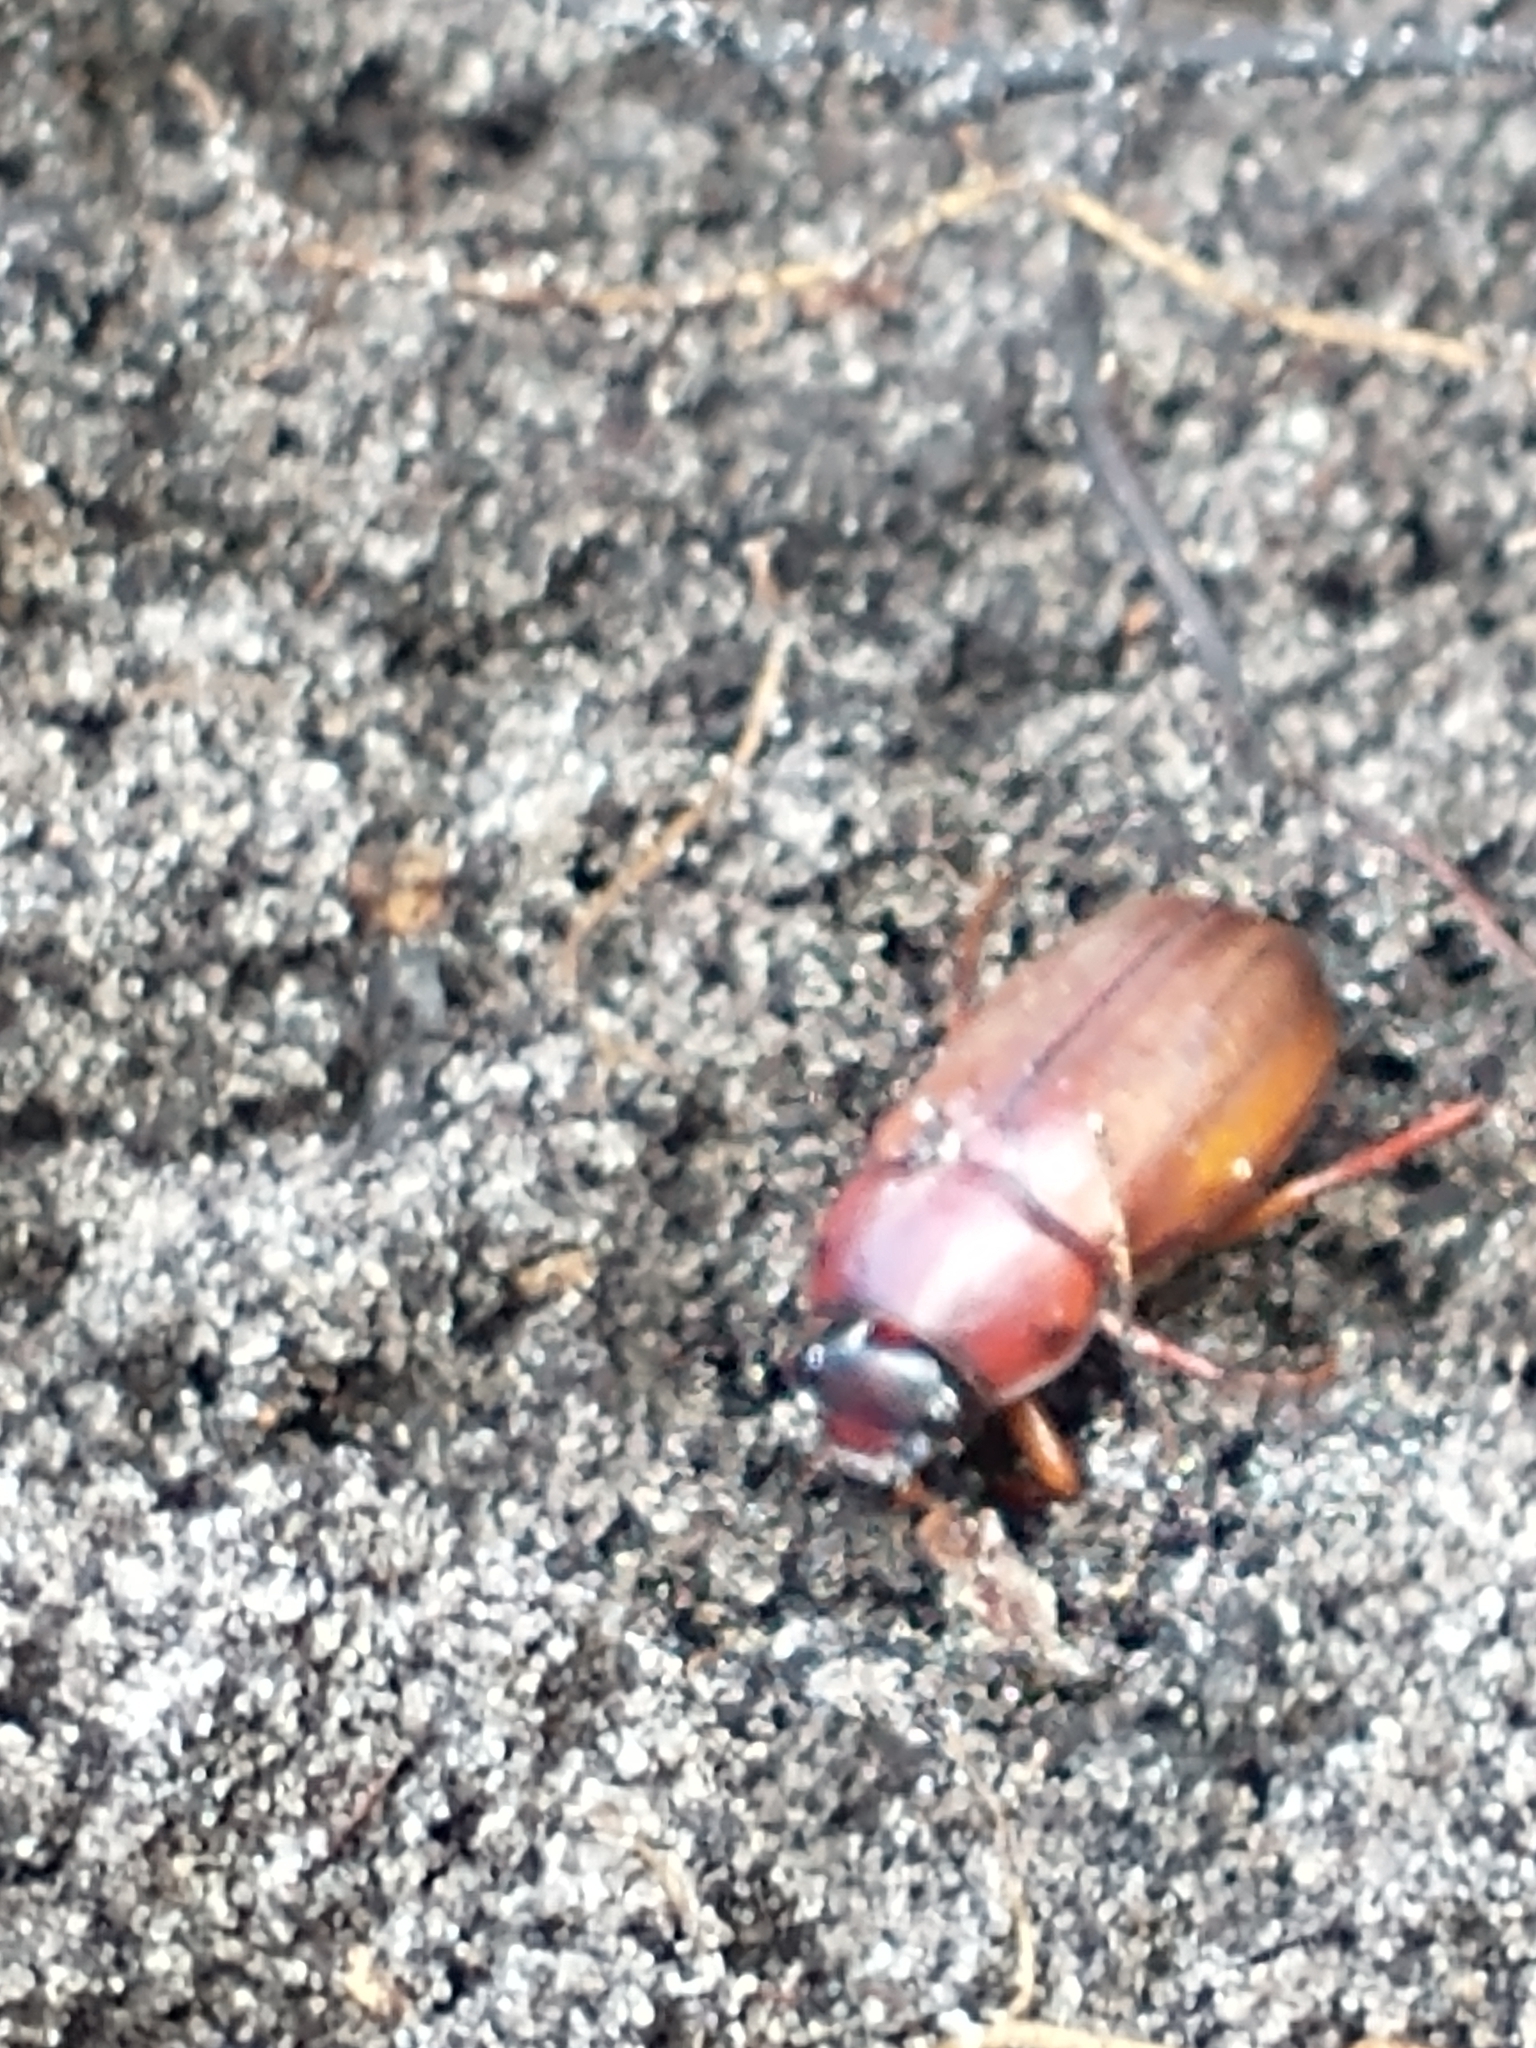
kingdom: Animalia
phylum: Arthropoda
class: Insecta
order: Coleoptera
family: Scarabaeidae
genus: Phyllophaga
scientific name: Phyllophaga
